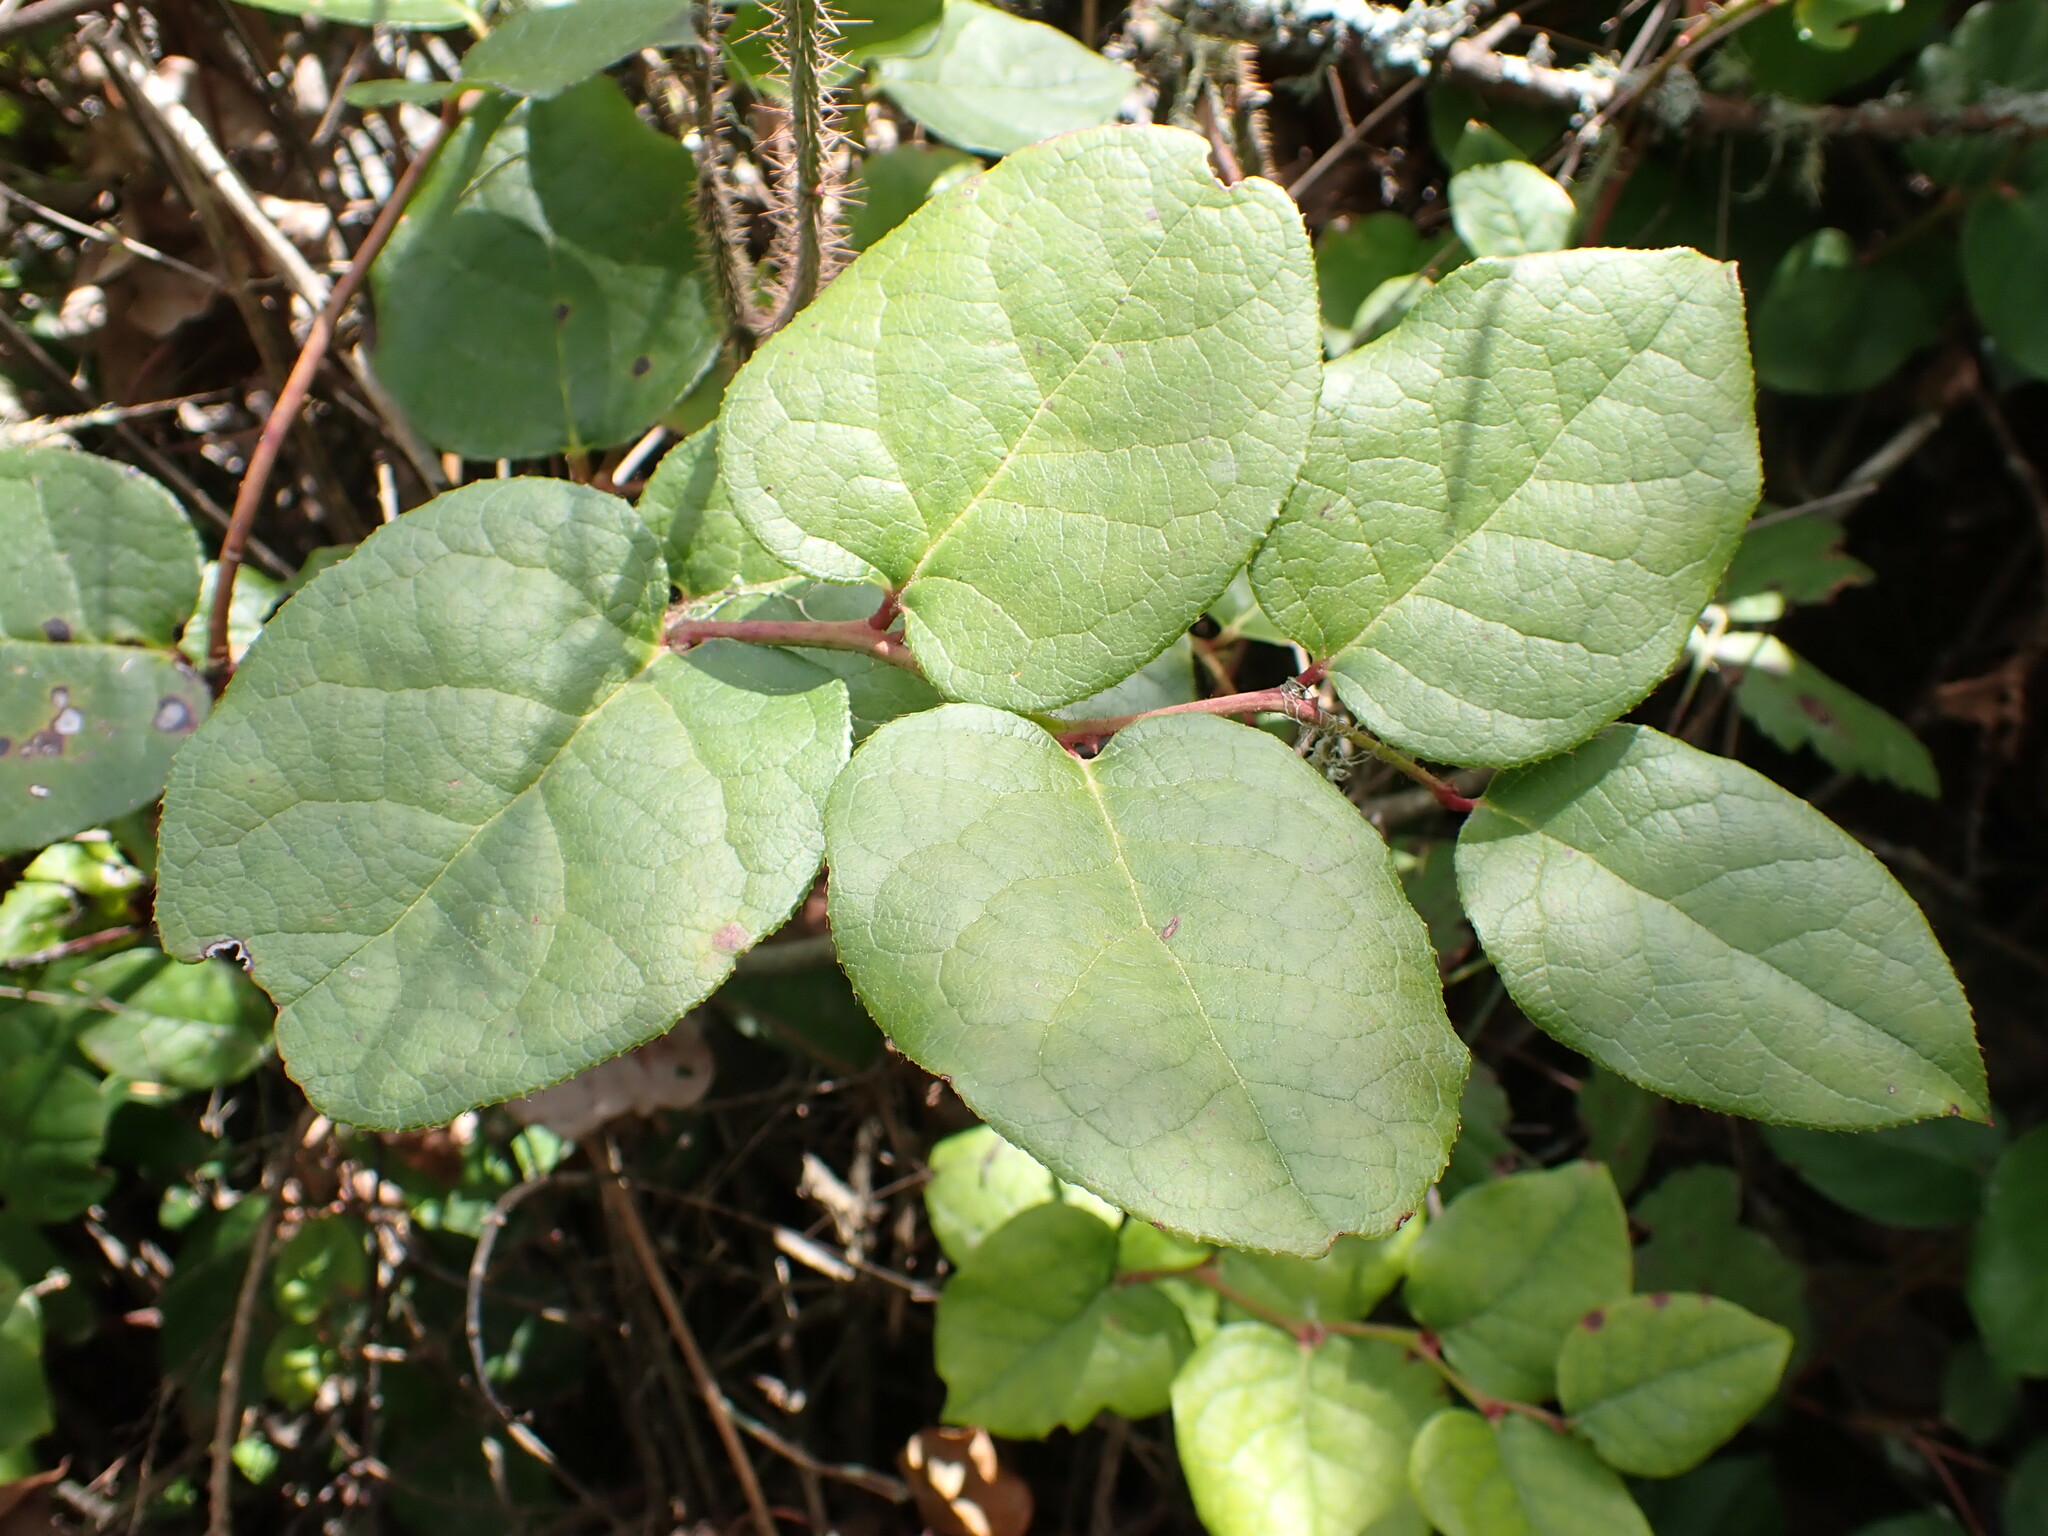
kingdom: Plantae
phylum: Tracheophyta
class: Magnoliopsida
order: Ericales
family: Ericaceae
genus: Gaultheria
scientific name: Gaultheria shallon
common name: Shallon
